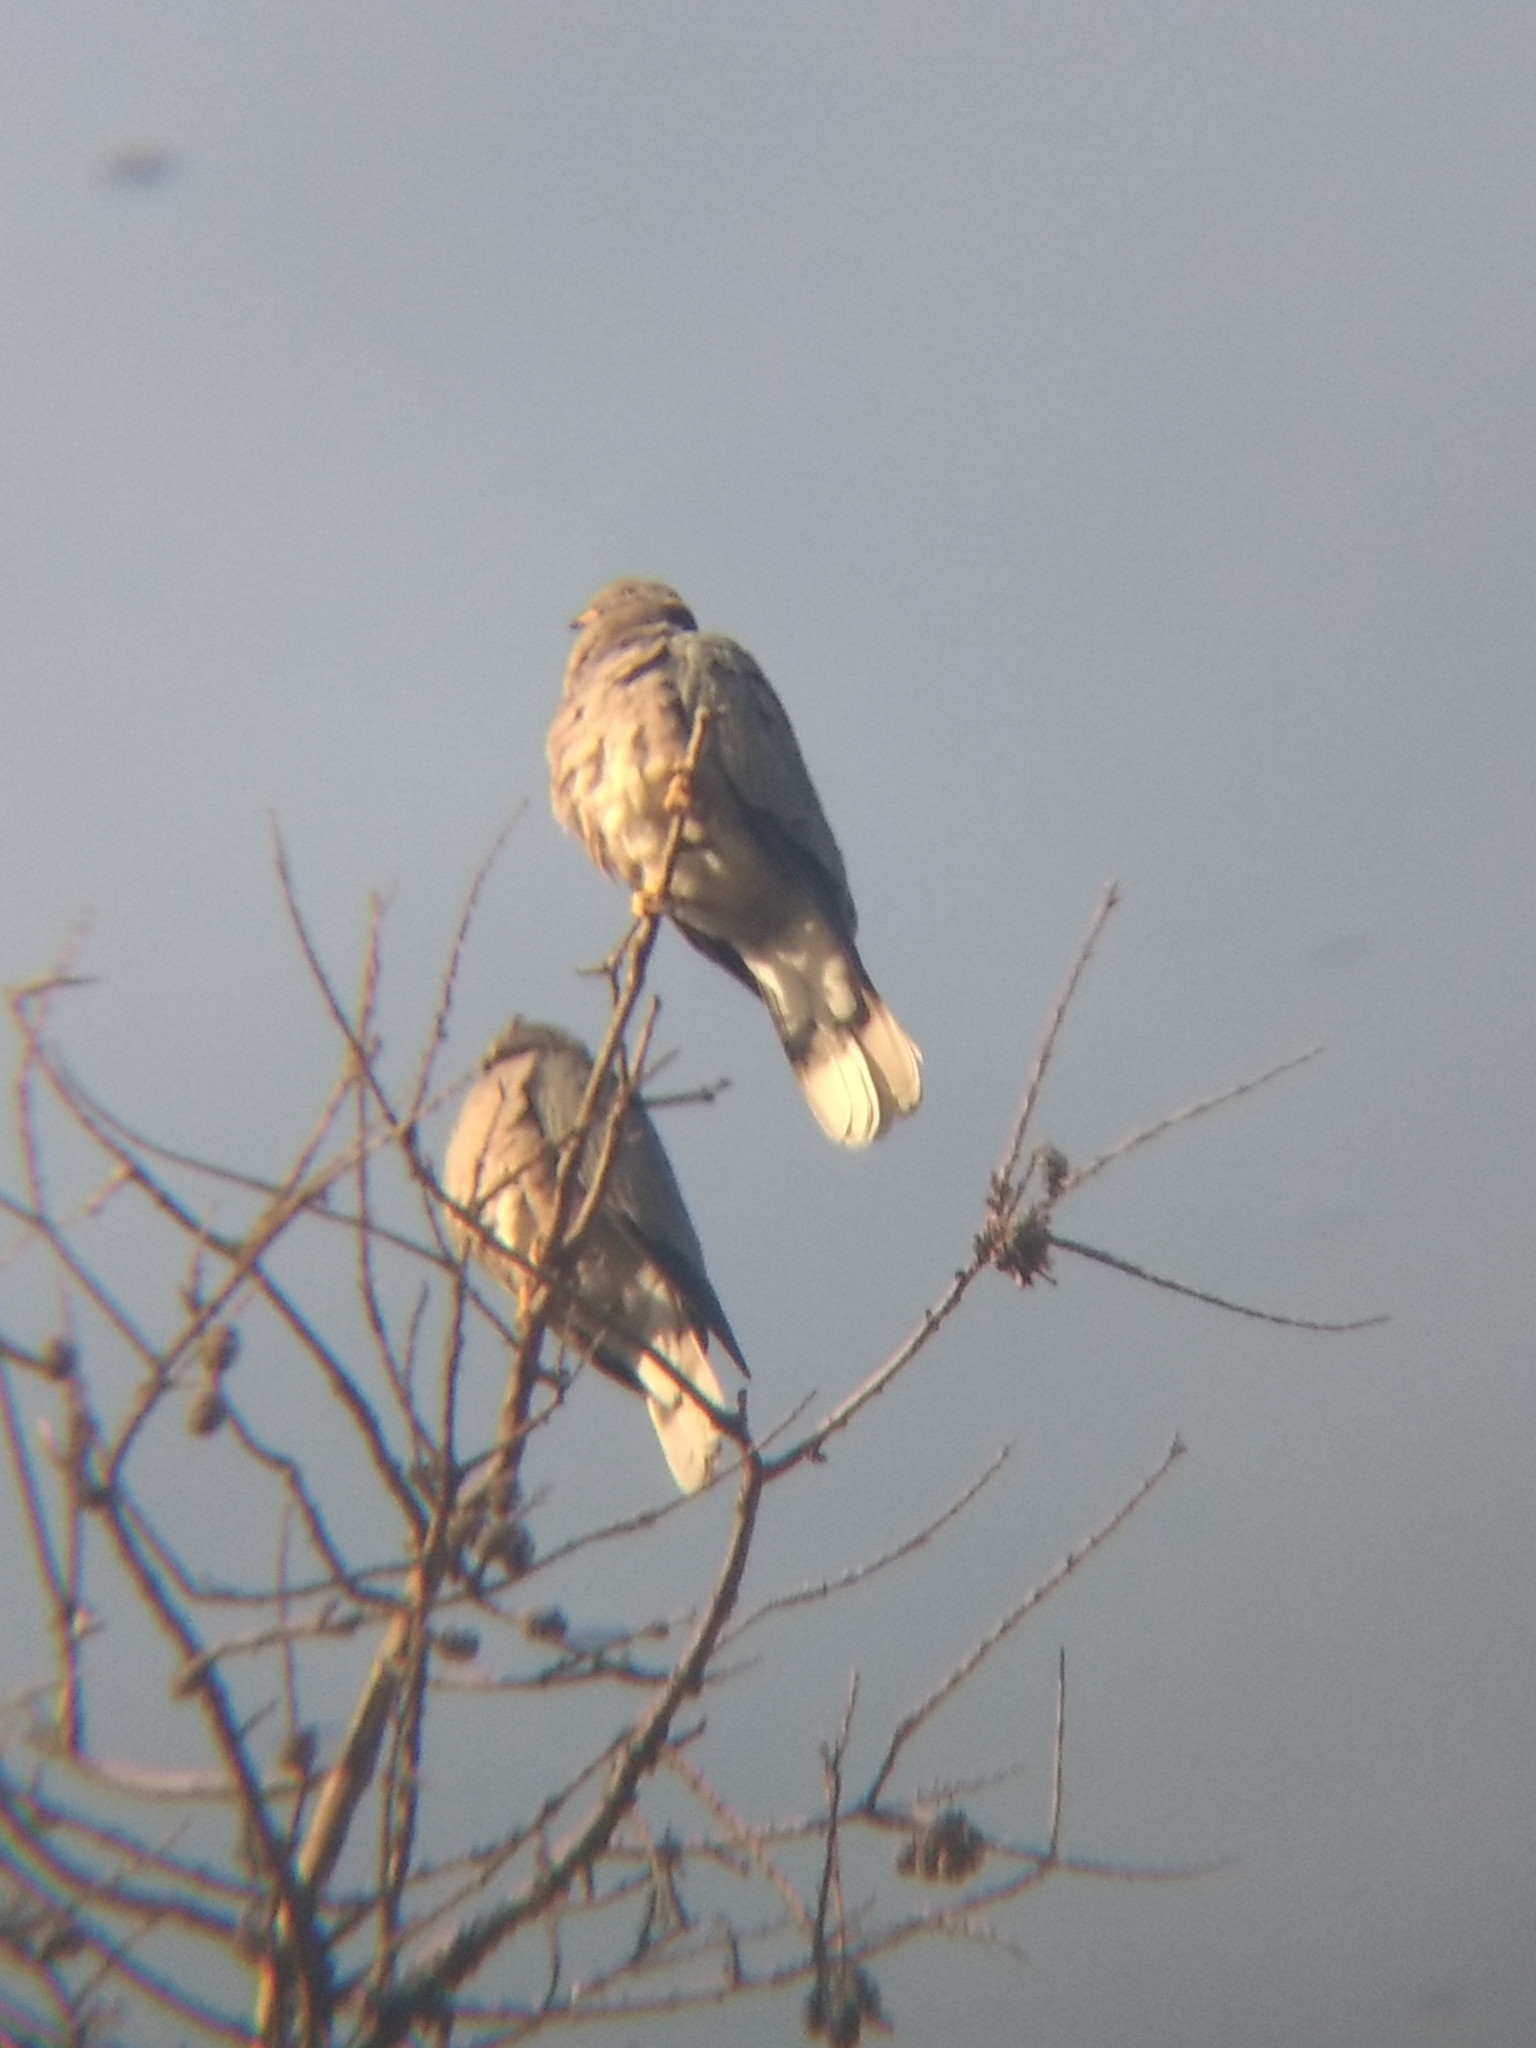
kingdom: Animalia
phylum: Chordata
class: Aves
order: Columbiformes
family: Columbidae
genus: Patagioenas
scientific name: Patagioenas fasciata
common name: Band-tailed pigeon
